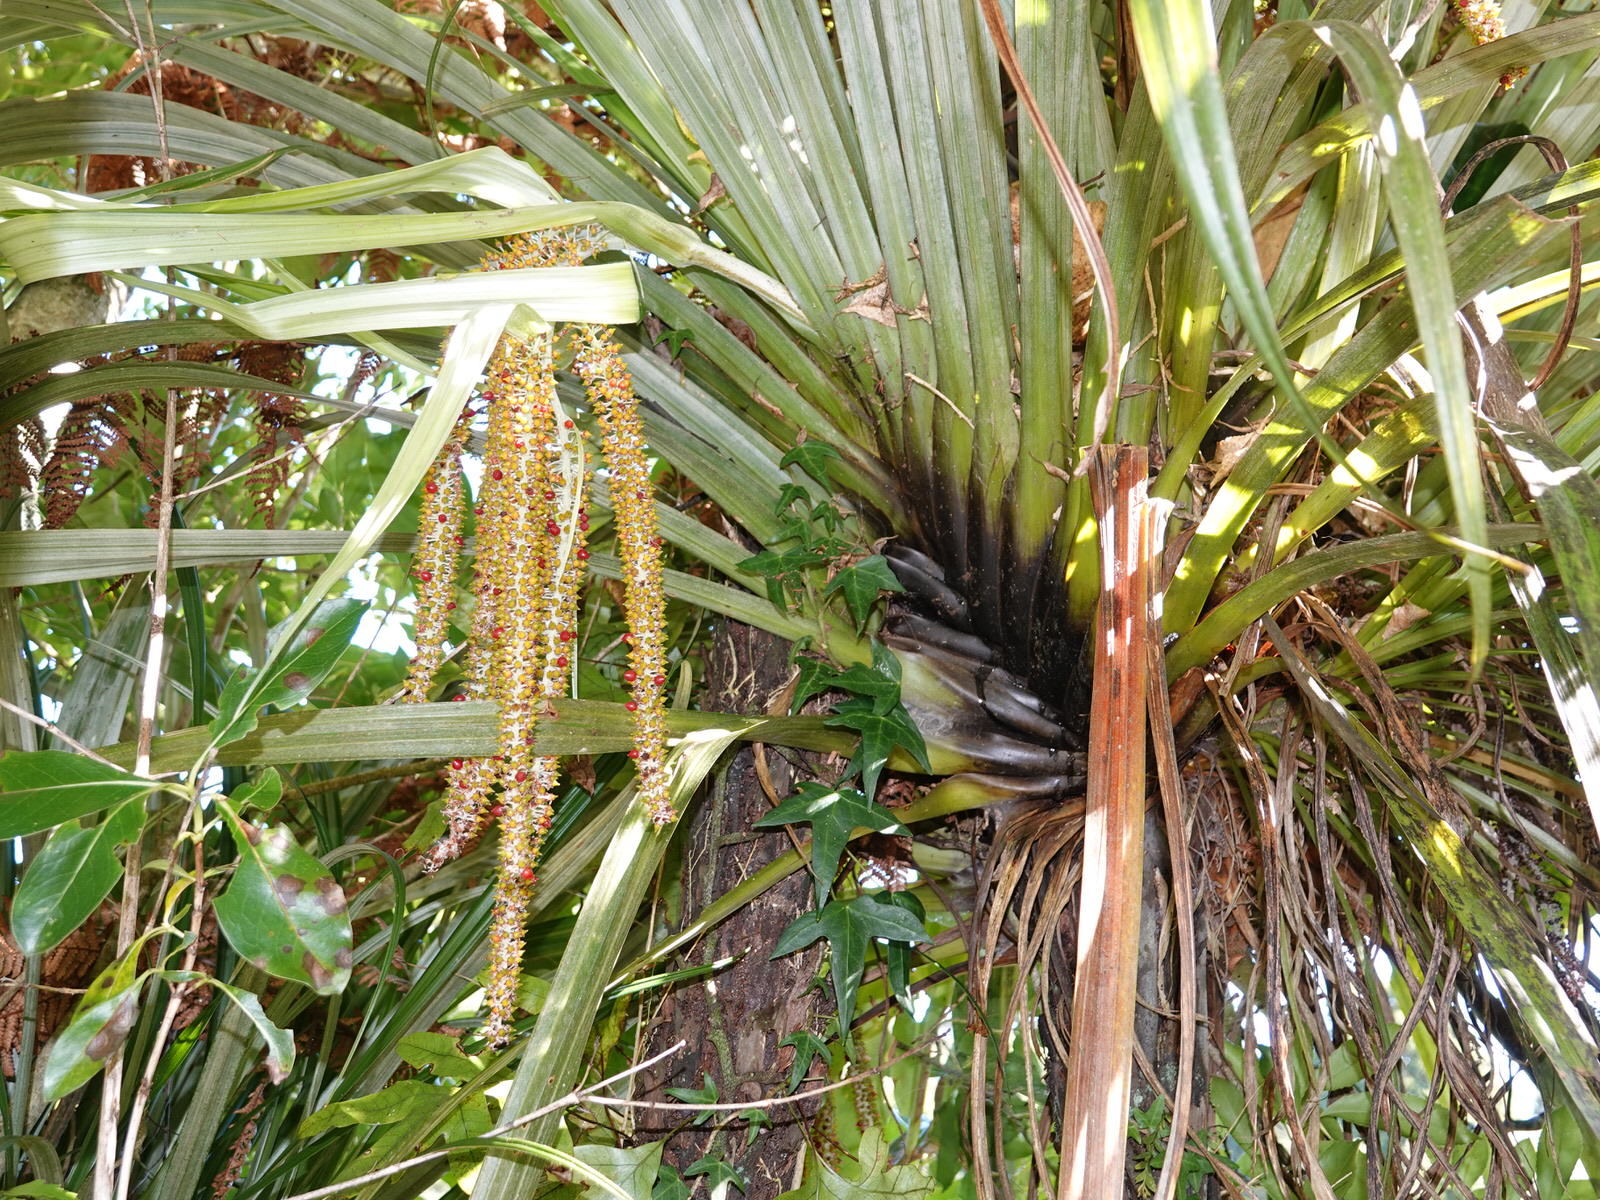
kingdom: Plantae
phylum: Tracheophyta
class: Liliopsida
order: Asparagales
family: Asteliaceae
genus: Astelia
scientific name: Astelia hastata
